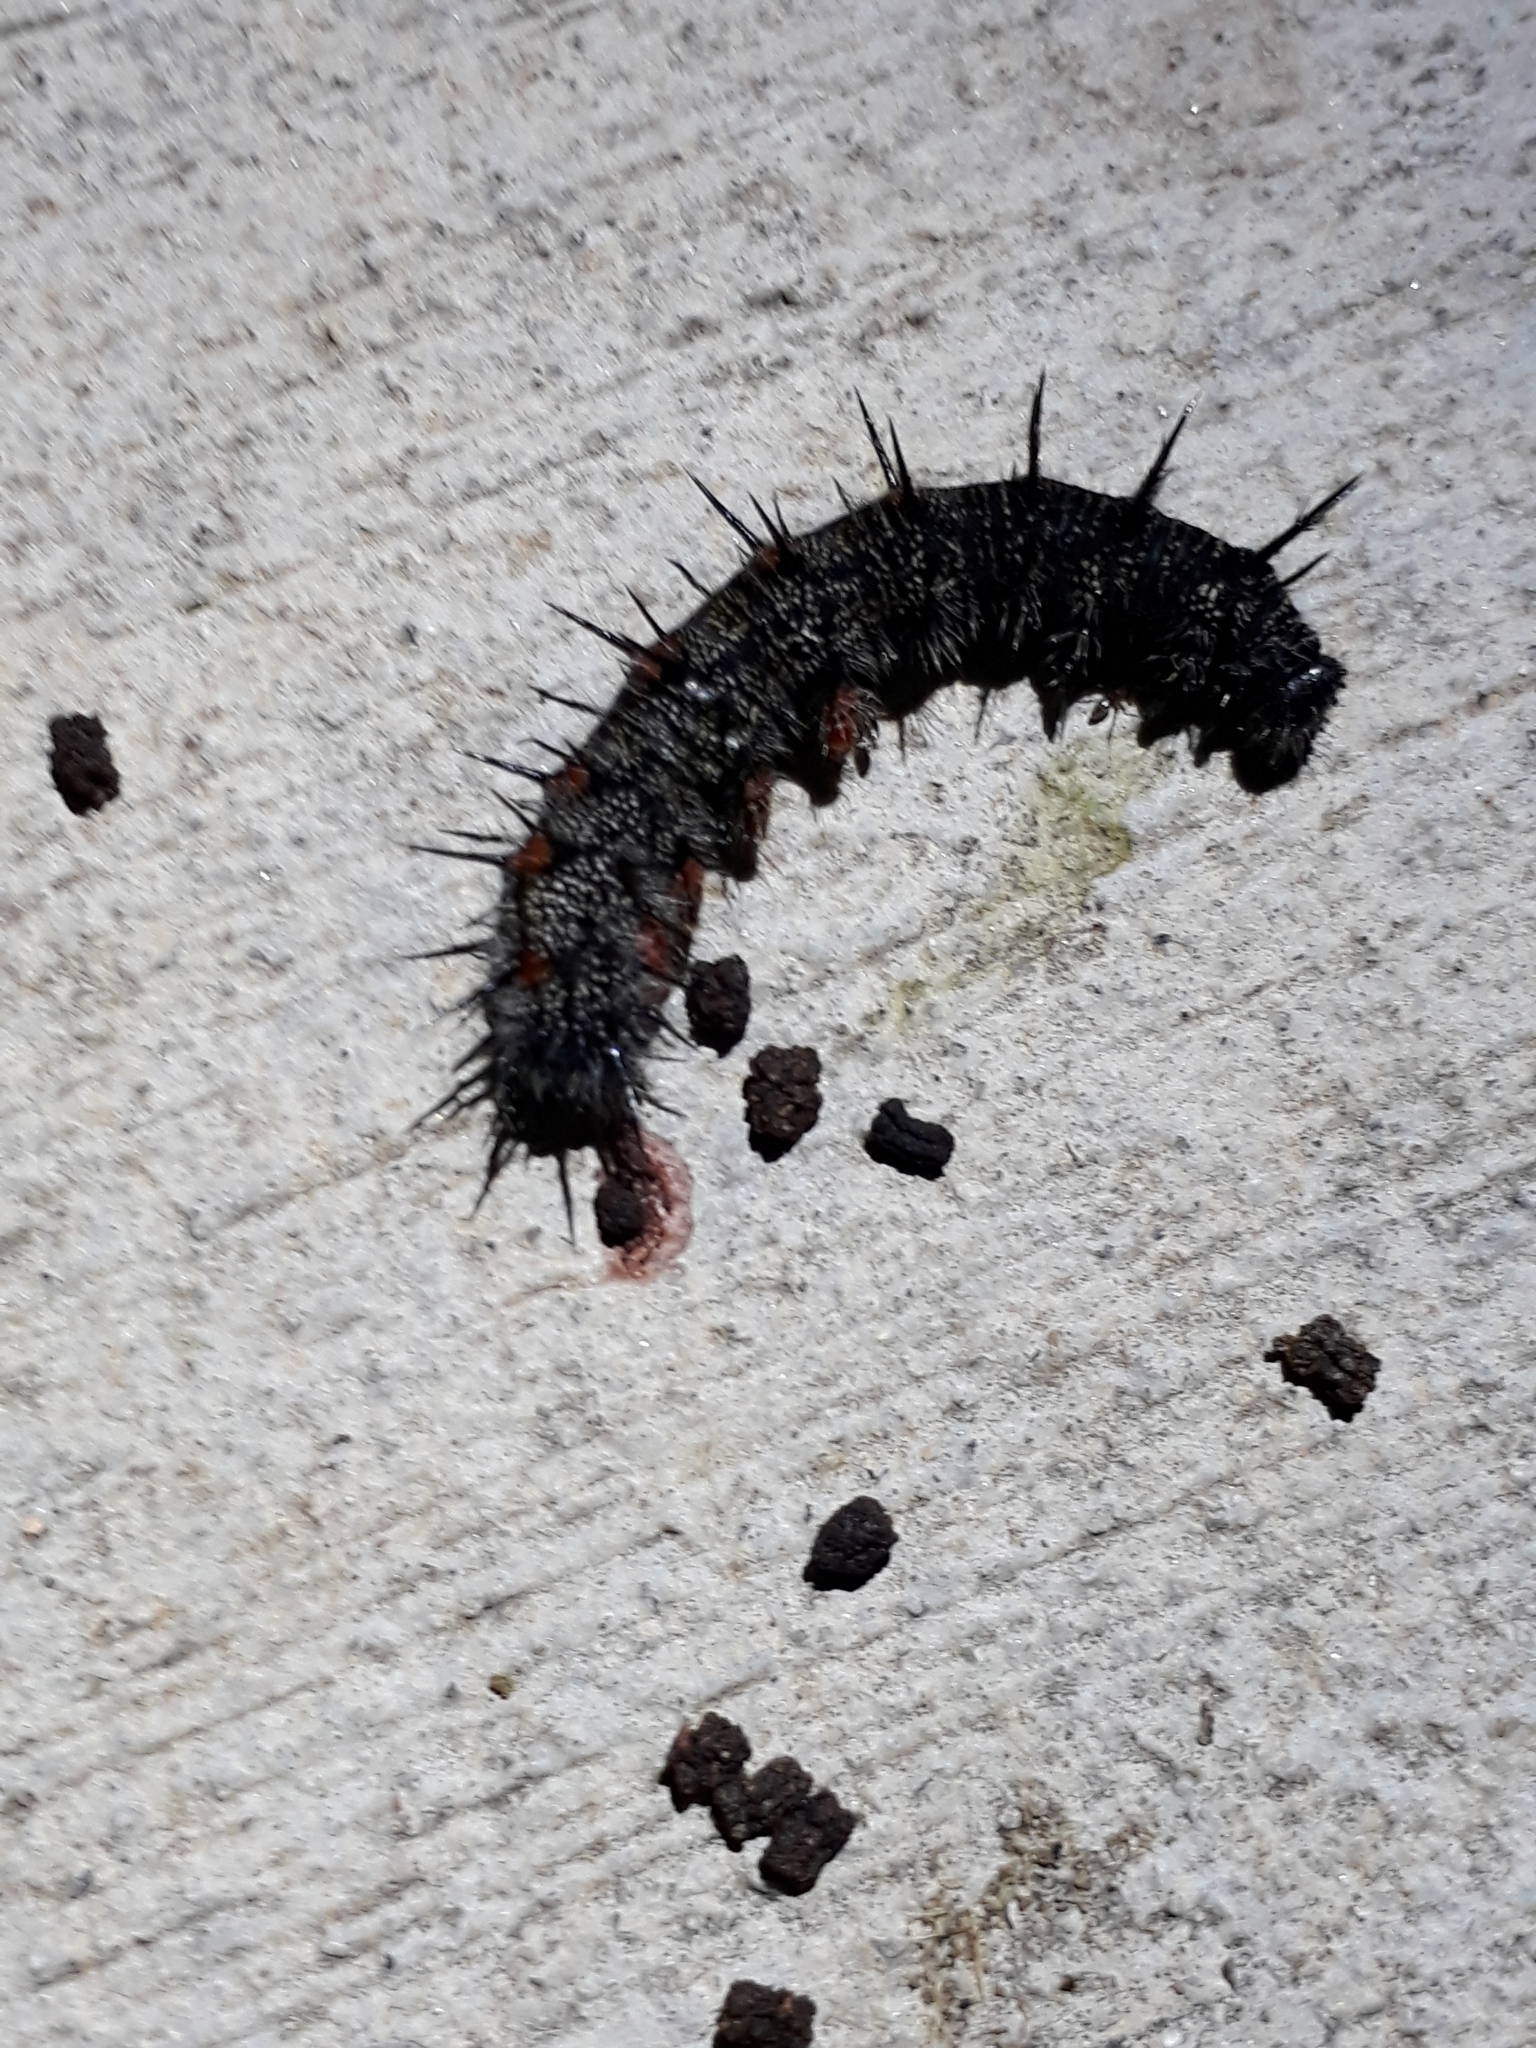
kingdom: Animalia
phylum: Arthropoda
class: Insecta
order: Lepidoptera
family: Nymphalidae
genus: Nymphalis
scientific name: Nymphalis antiopa
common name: Camberwell beauty
